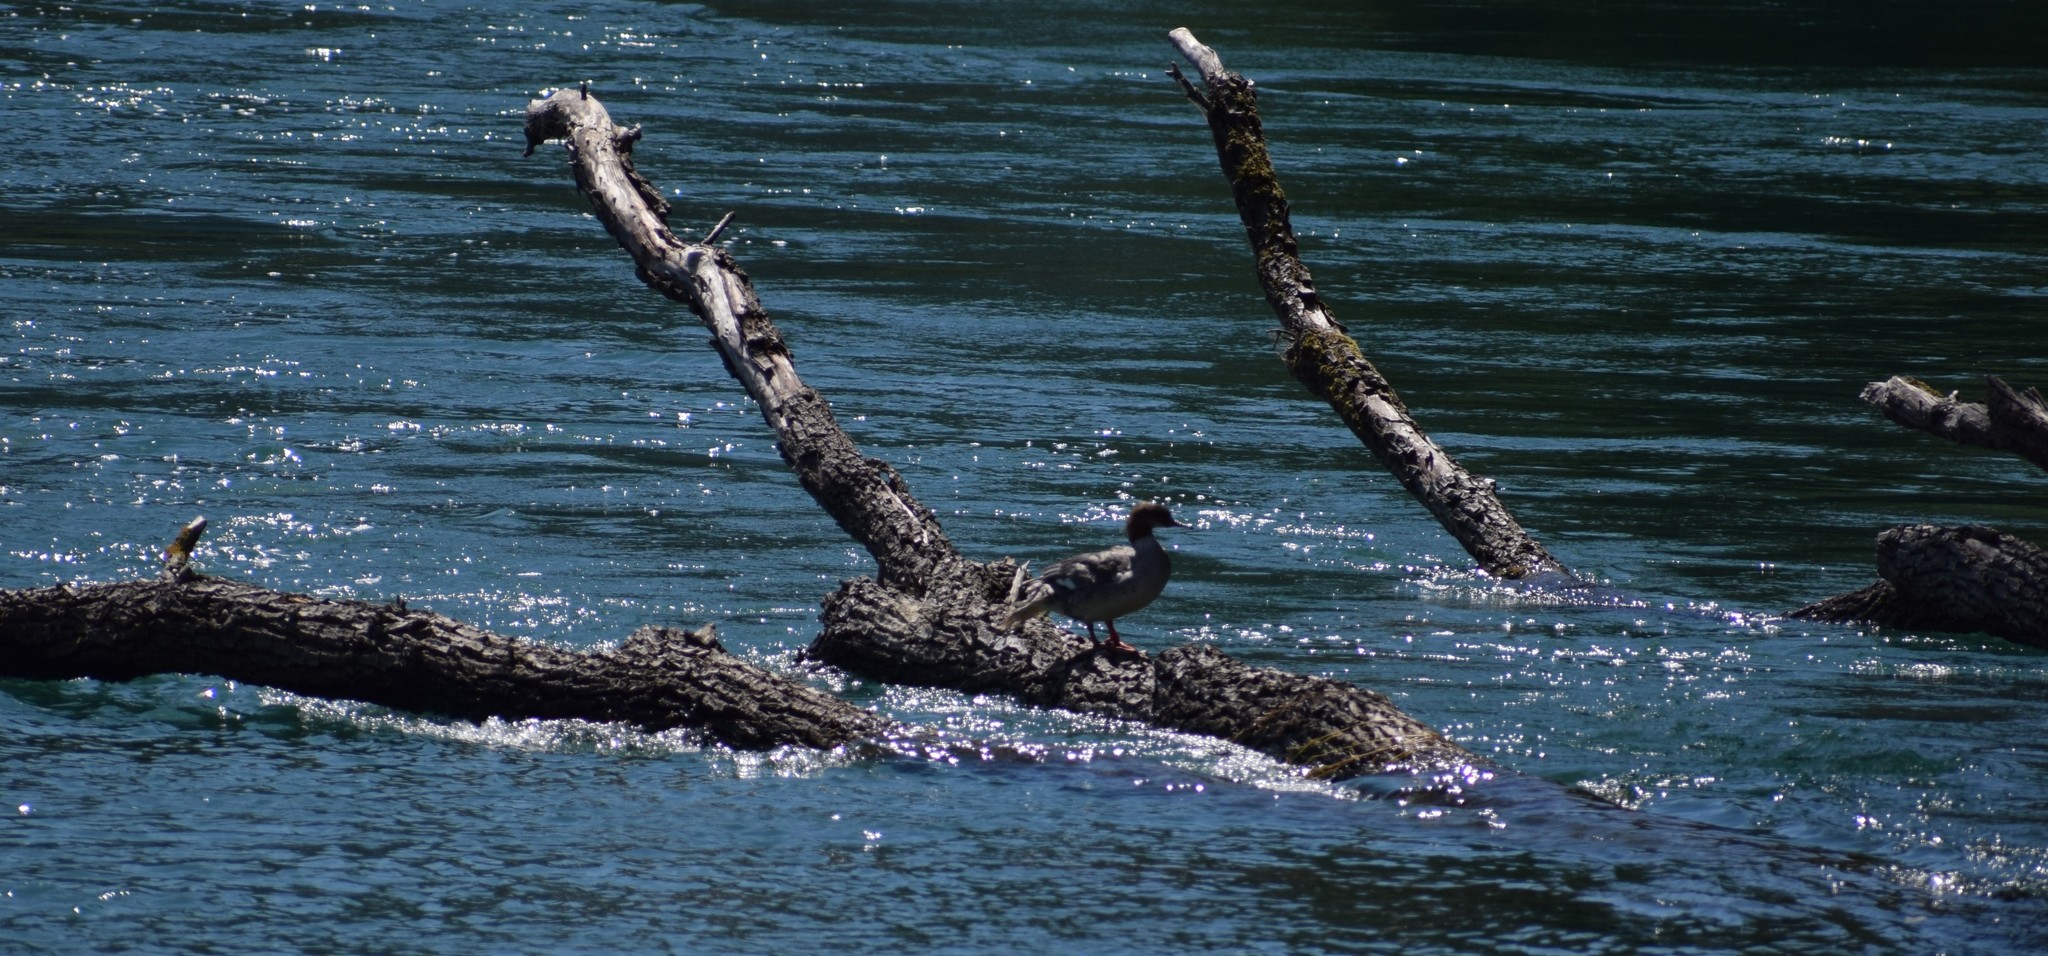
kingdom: Animalia
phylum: Chordata
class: Aves
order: Anseriformes
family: Anatidae
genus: Mergus
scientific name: Mergus merganser
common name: Common merganser
